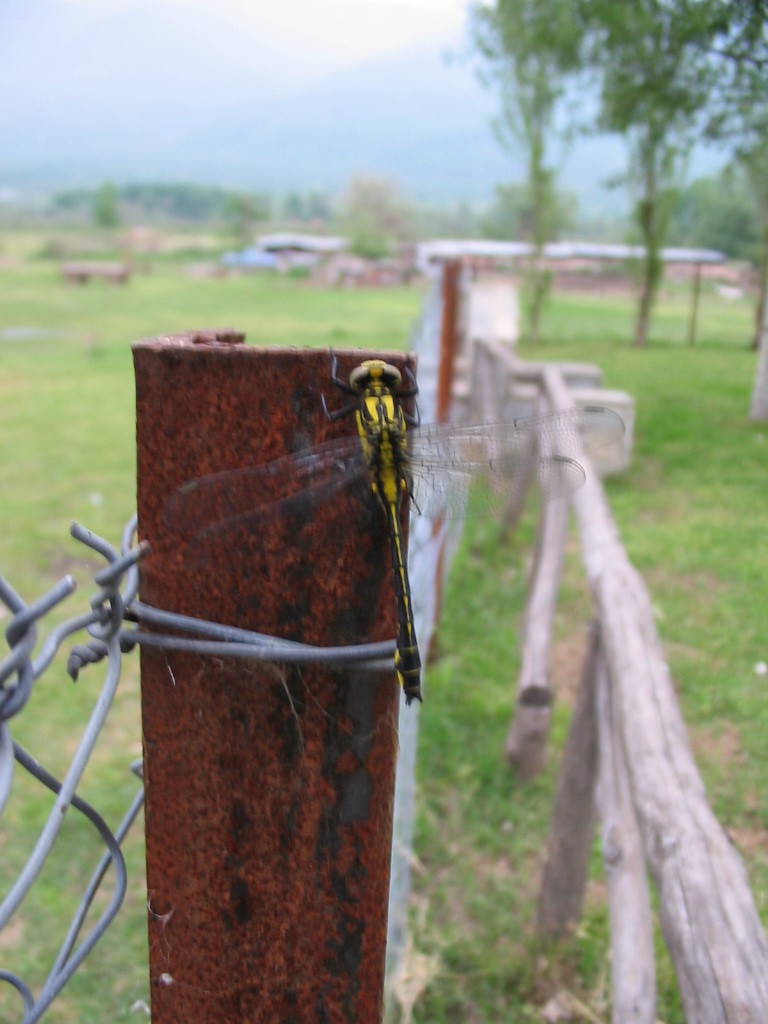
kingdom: Animalia
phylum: Arthropoda
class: Insecta
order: Odonata
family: Gomphidae
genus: Gomphus
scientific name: Gomphus vulgatissimus
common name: Club-tailed dragonfly
